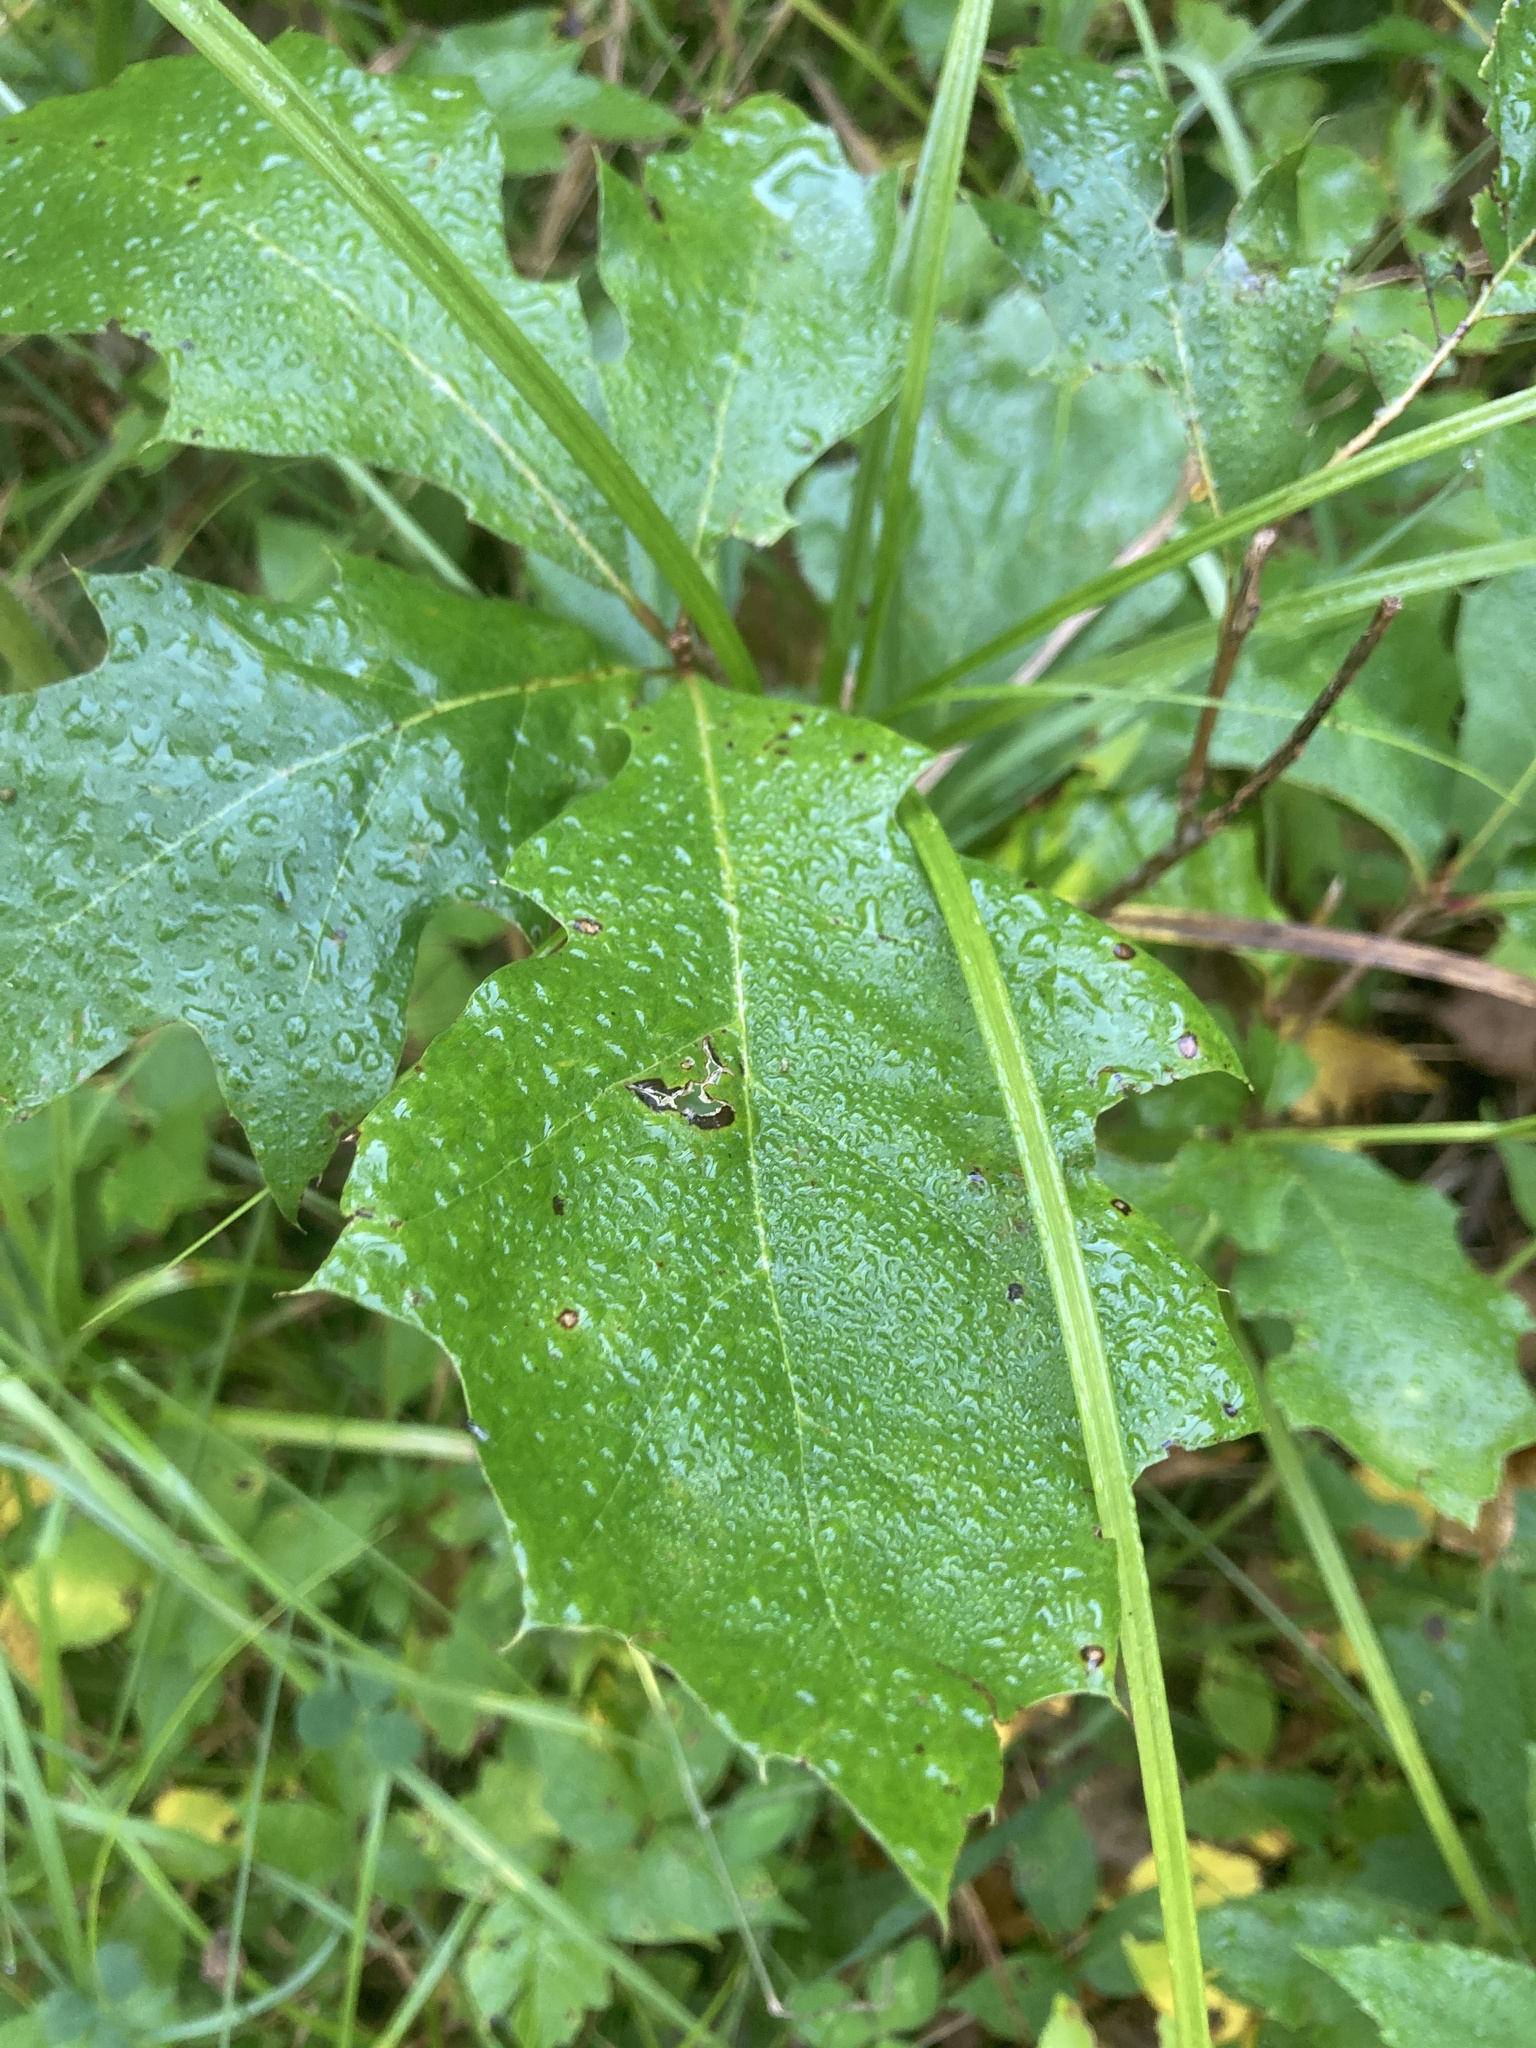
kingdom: Plantae
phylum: Tracheophyta
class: Magnoliopsida
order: Fagales
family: Fagaceae
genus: Quercus
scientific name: Quercus rubra
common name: Red oak
